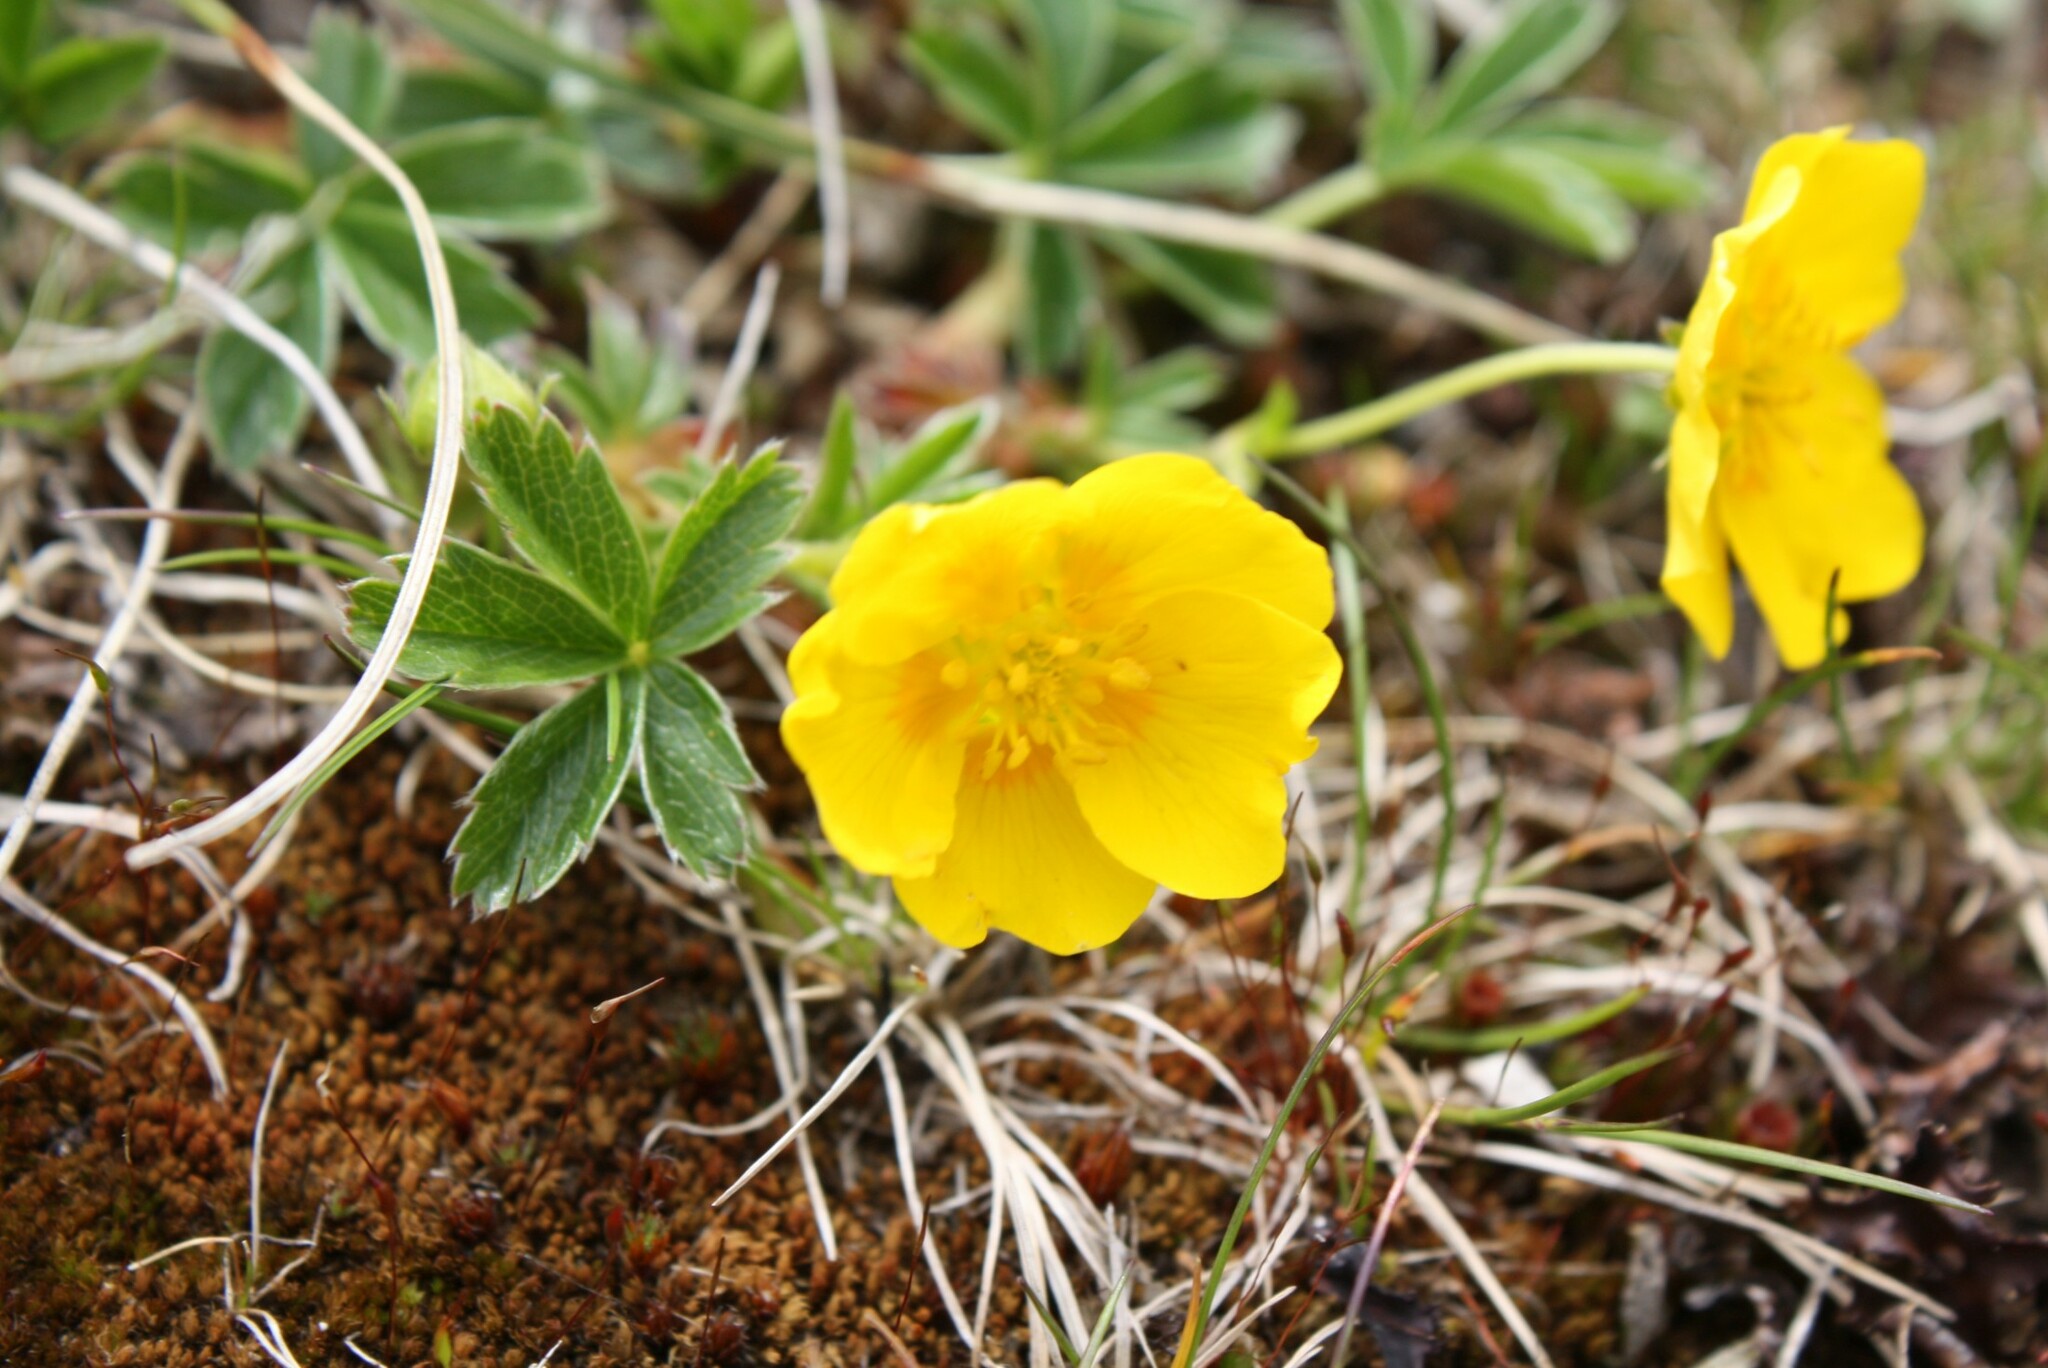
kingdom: Plantae
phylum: Tracheophyta
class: Magnoliopsida
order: Rosales
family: Rosaceae
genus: Potentilla
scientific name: Potentilla aurea
